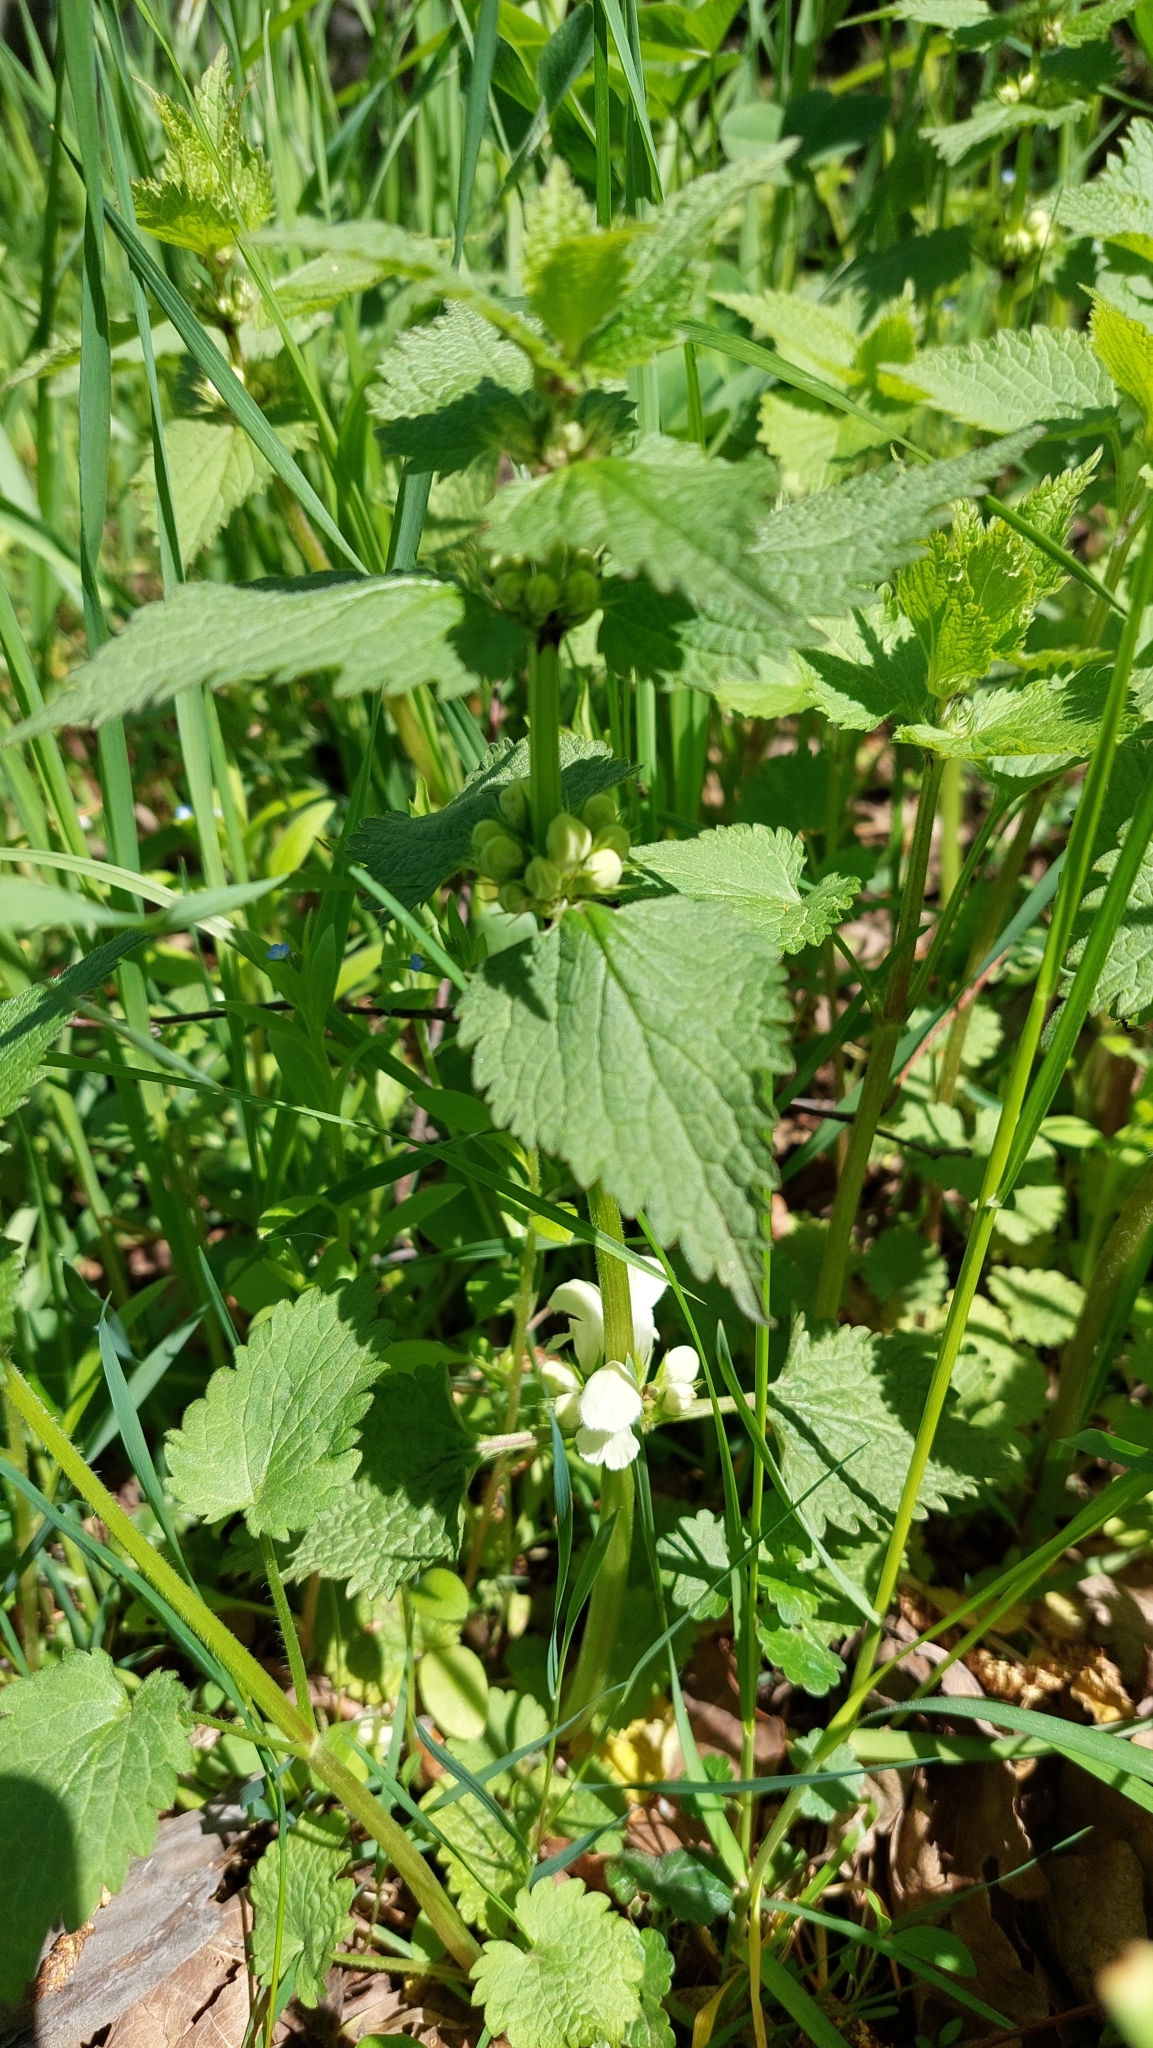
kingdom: Plantae
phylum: Tracheophyta
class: Magnoliopsida
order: Lamiales
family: Lamiaceae
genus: Lamium
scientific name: Lamium album
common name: White dead-nettle
